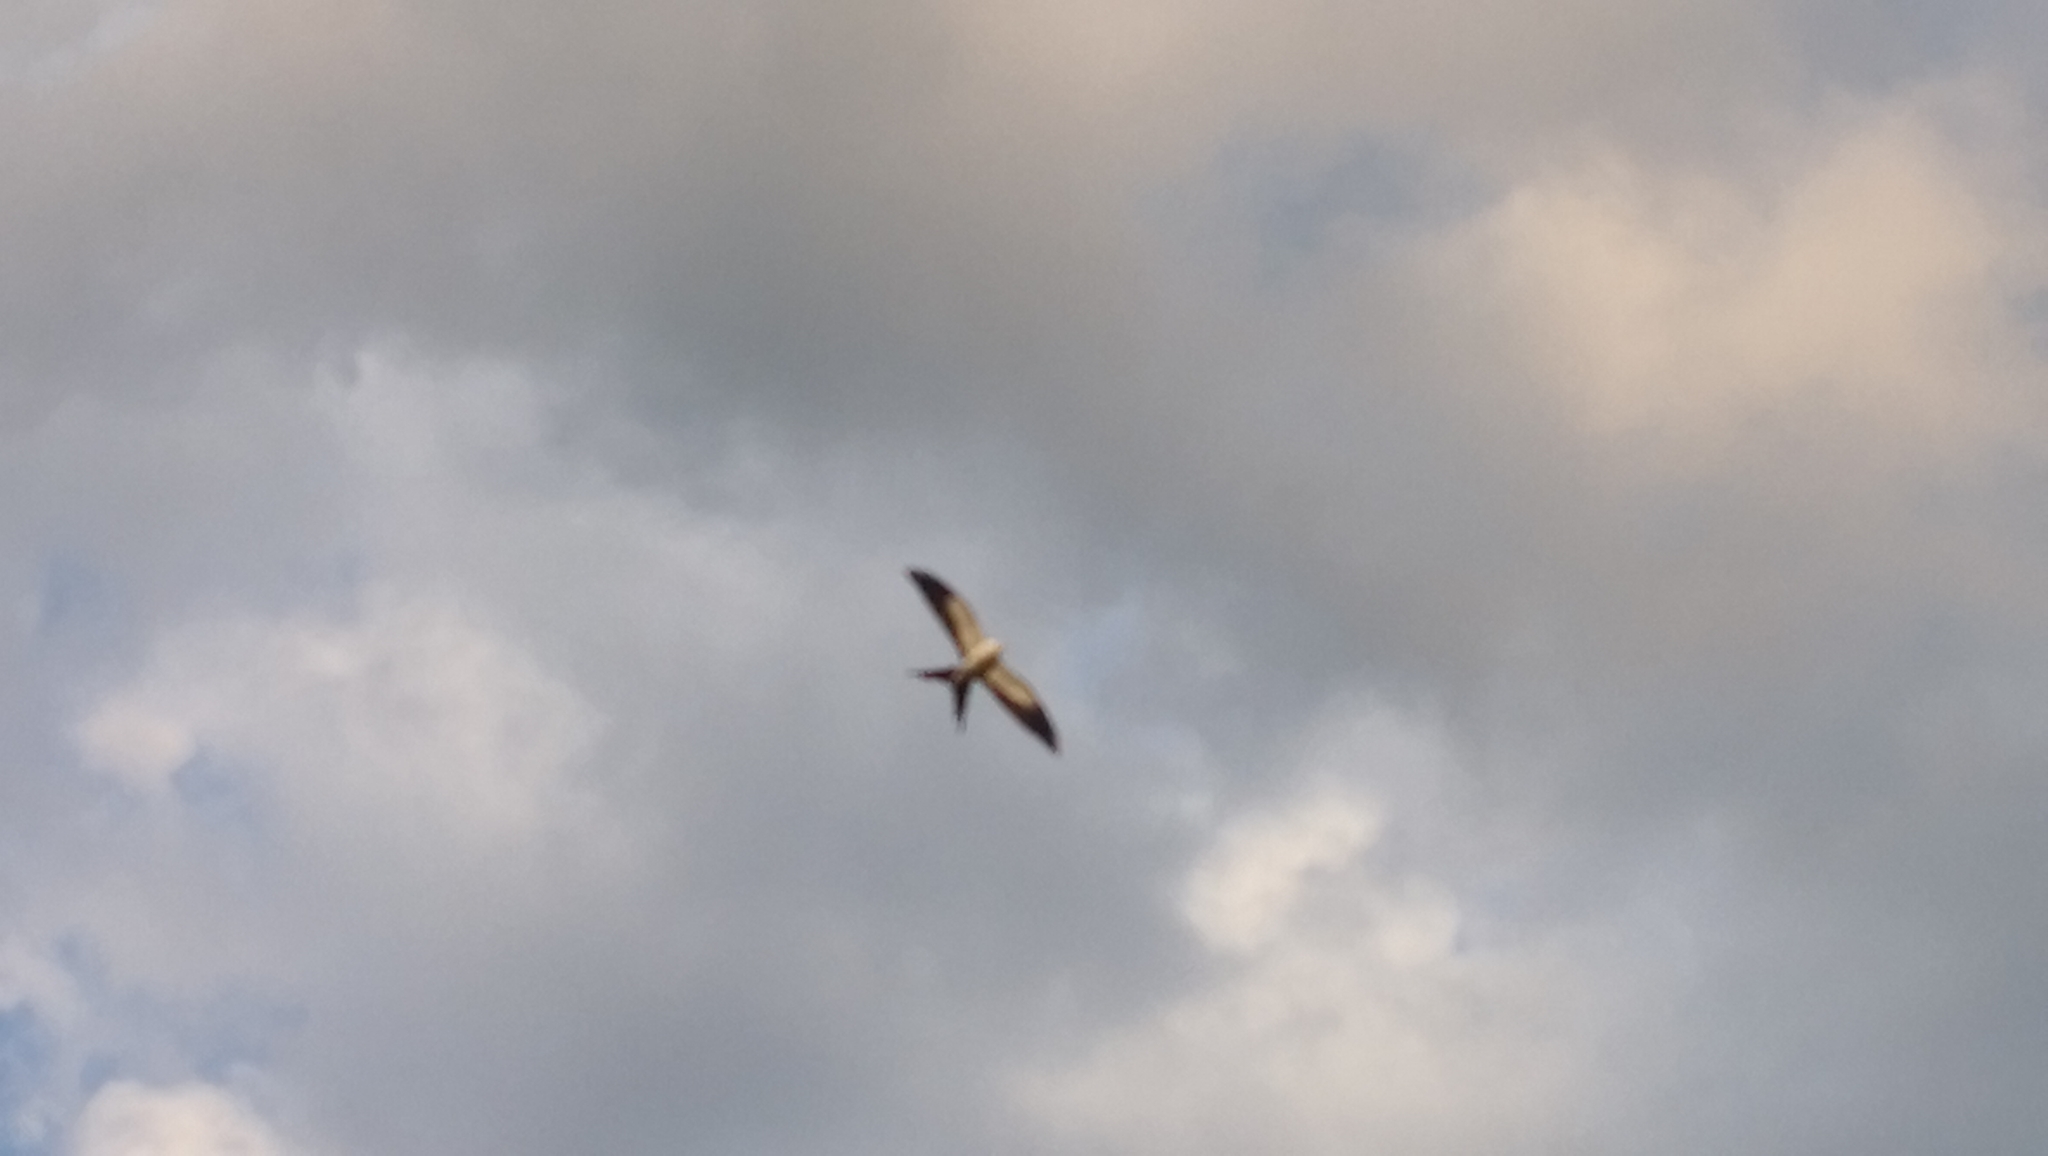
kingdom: Animalia
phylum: Chordata
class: Aves
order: Accipitriformes
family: Accipitridae
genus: Elanoides
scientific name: Elanoides forficatus
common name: Swallow-tailed kite
